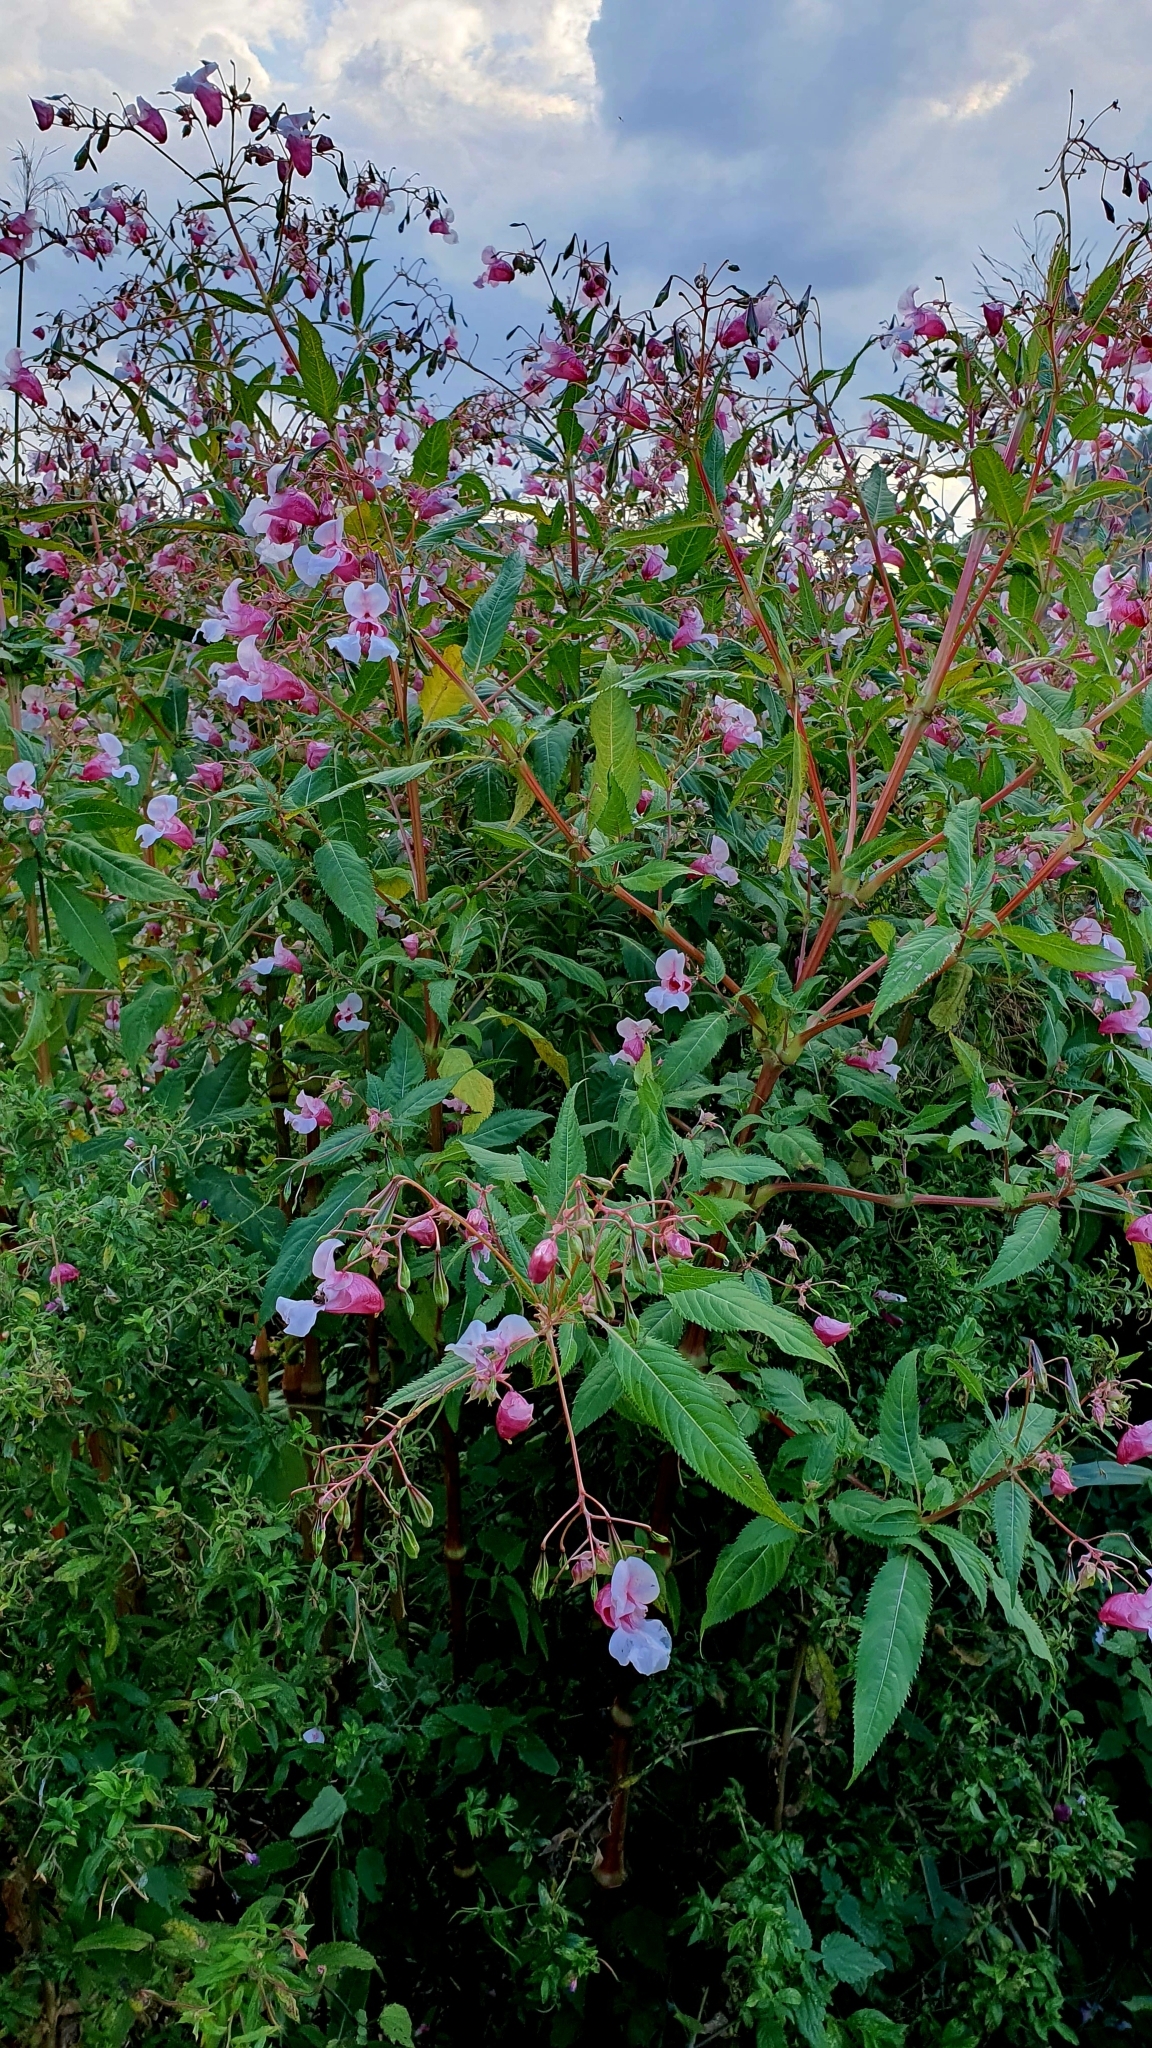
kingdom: Plantae
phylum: Tracheophyta
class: Magnoliopsida
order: Ericales
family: Balsaminaceae
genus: Impatiens
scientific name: Impatiens glandulifera
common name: Himalayan balsam
